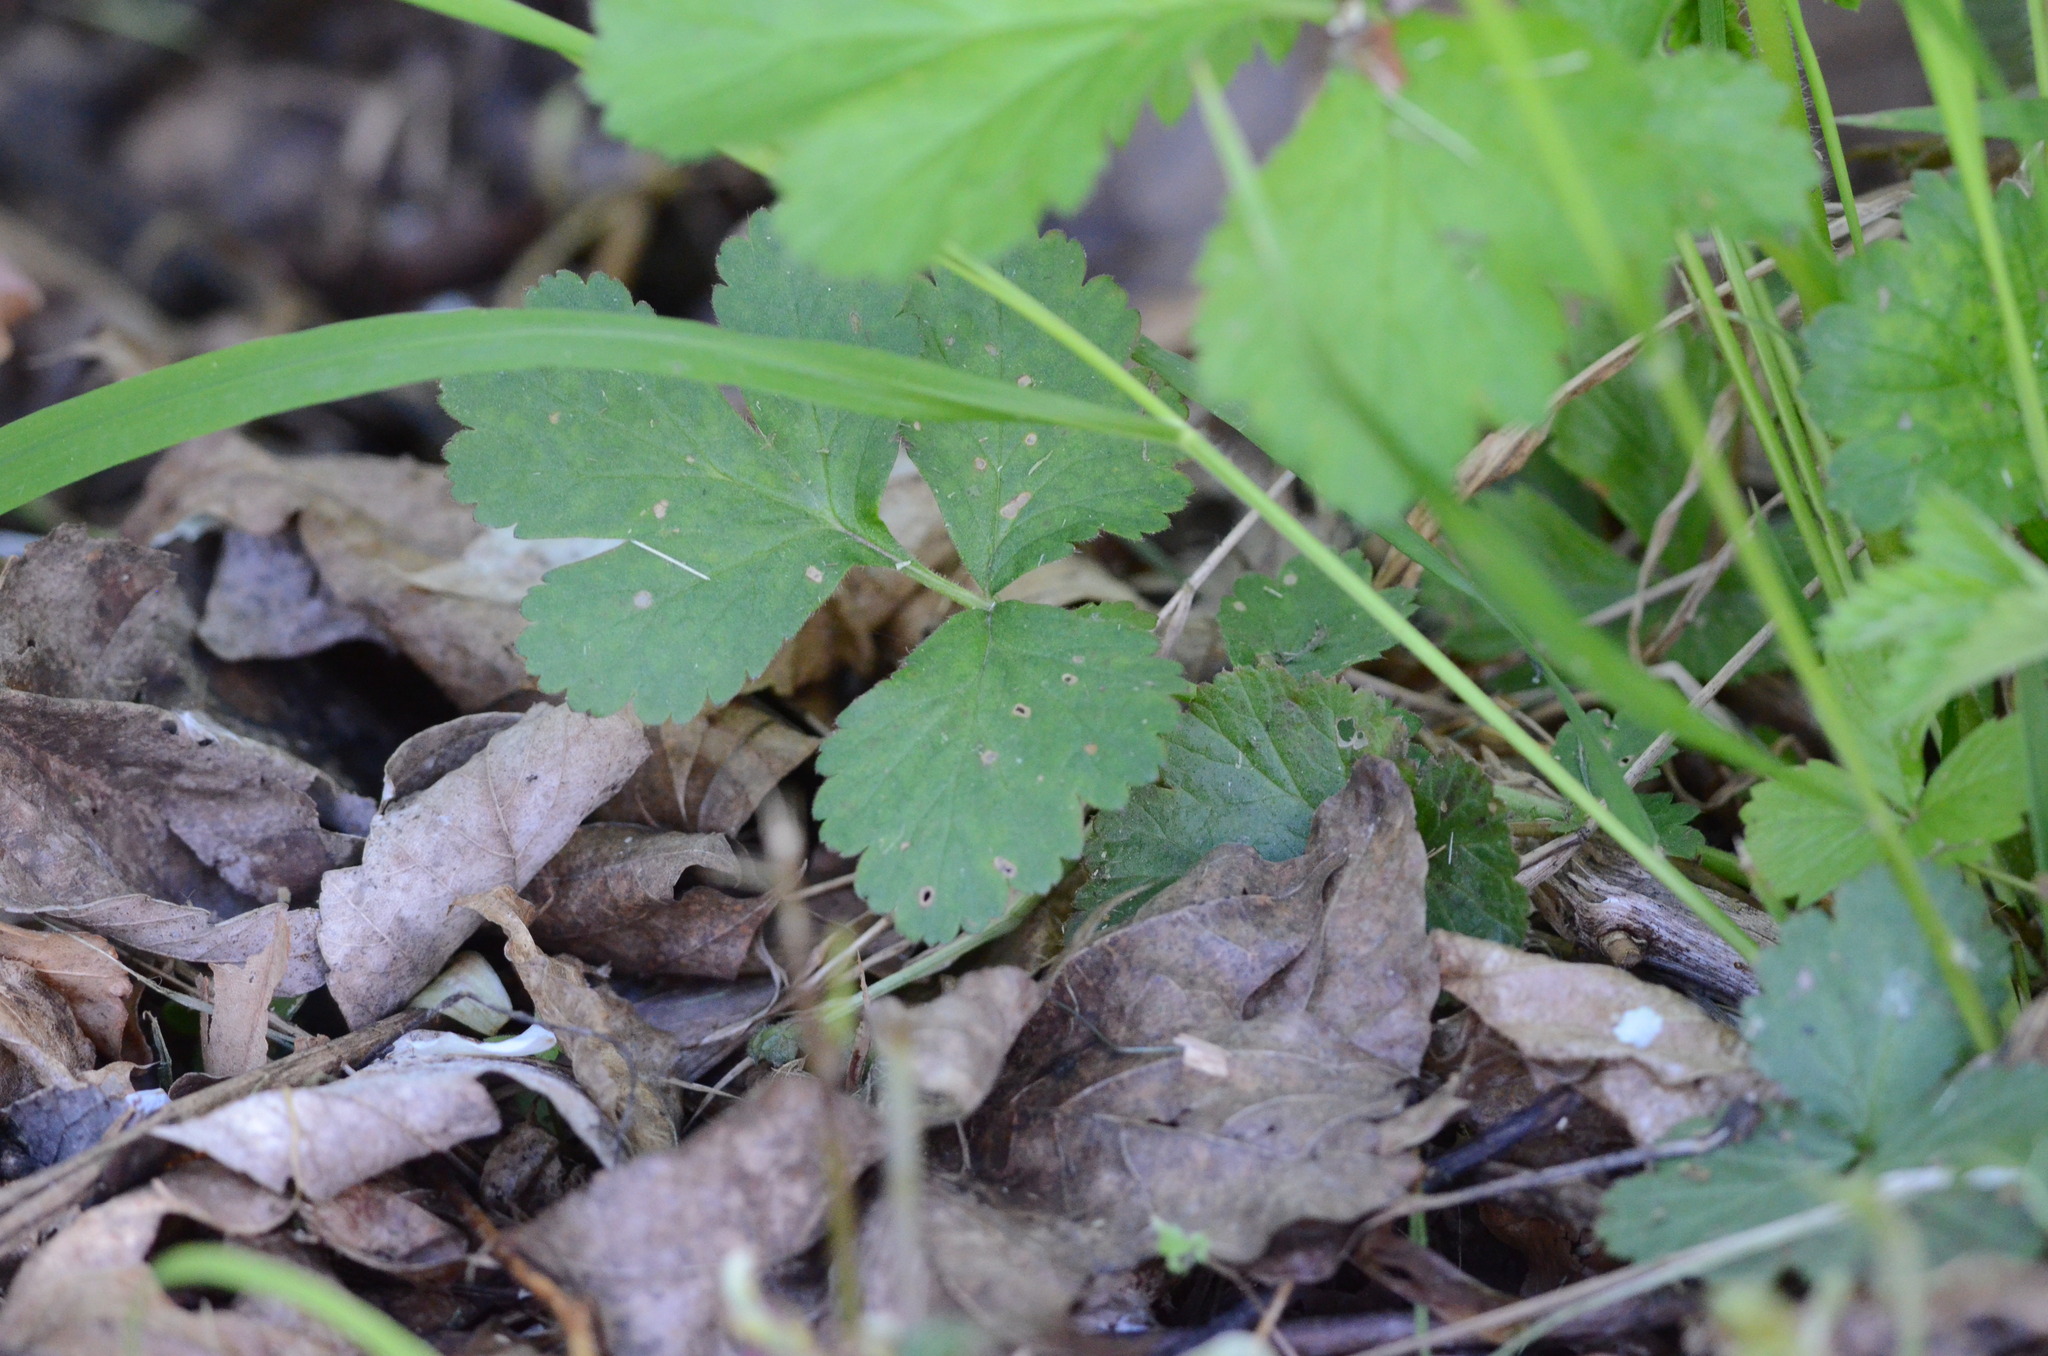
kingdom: Plantae
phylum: Tracheophyta
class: Magnoliopsida
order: Rosales
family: Rosaceae
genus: Geum
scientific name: Geum urbanum
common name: Wood avens
